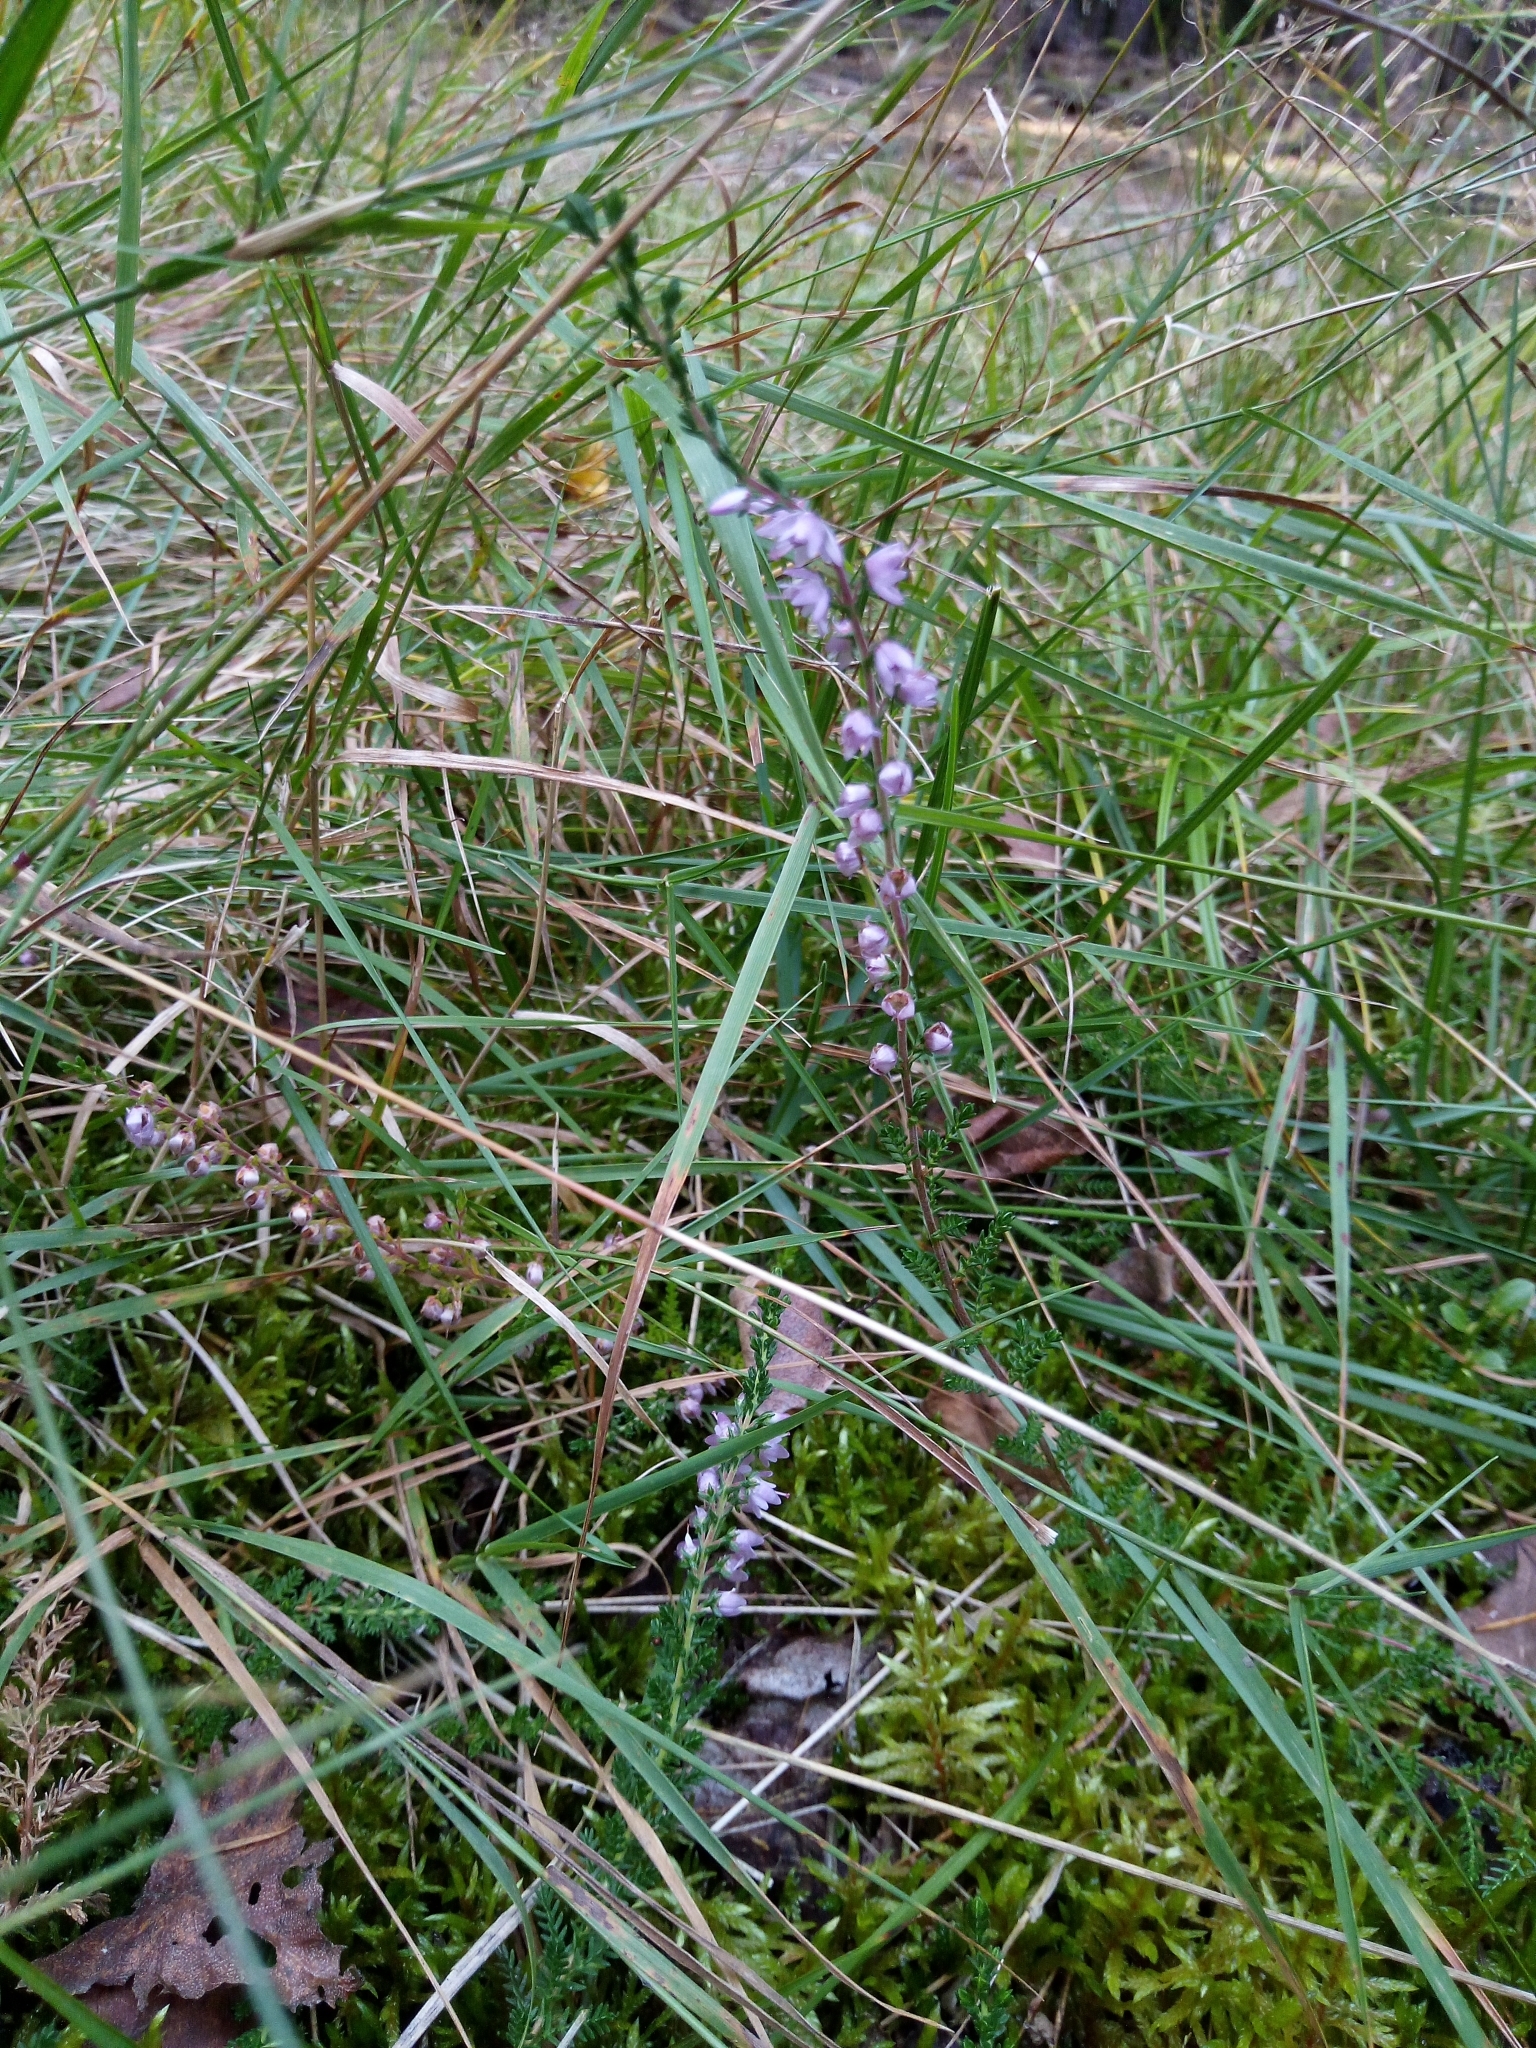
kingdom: Plantae
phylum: Tracheophyta
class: Magnoliopsida
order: Ericales
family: Ericaceae
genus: Calluna
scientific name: Calluna vulgaris
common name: Heather
